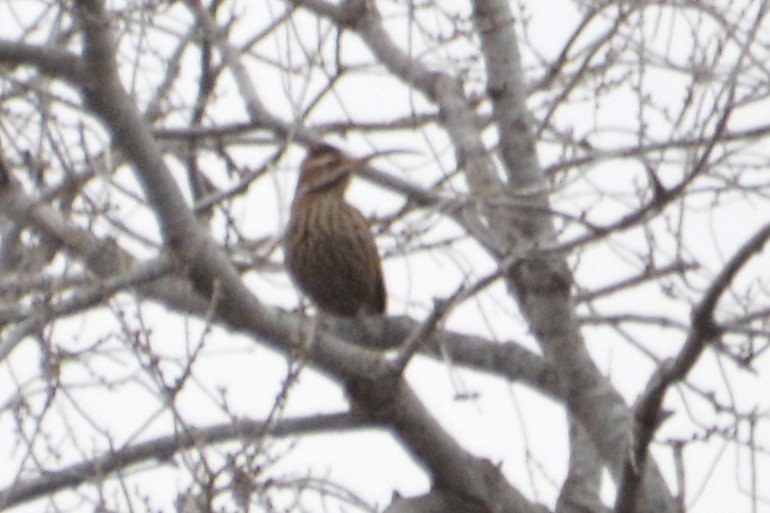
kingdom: Animalia
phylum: Chordata
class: Aves
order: Passeriformes
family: Furnariidae
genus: Drymornis
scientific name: Drymornis bridgesii
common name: Scimitar-billed woodcreeper
